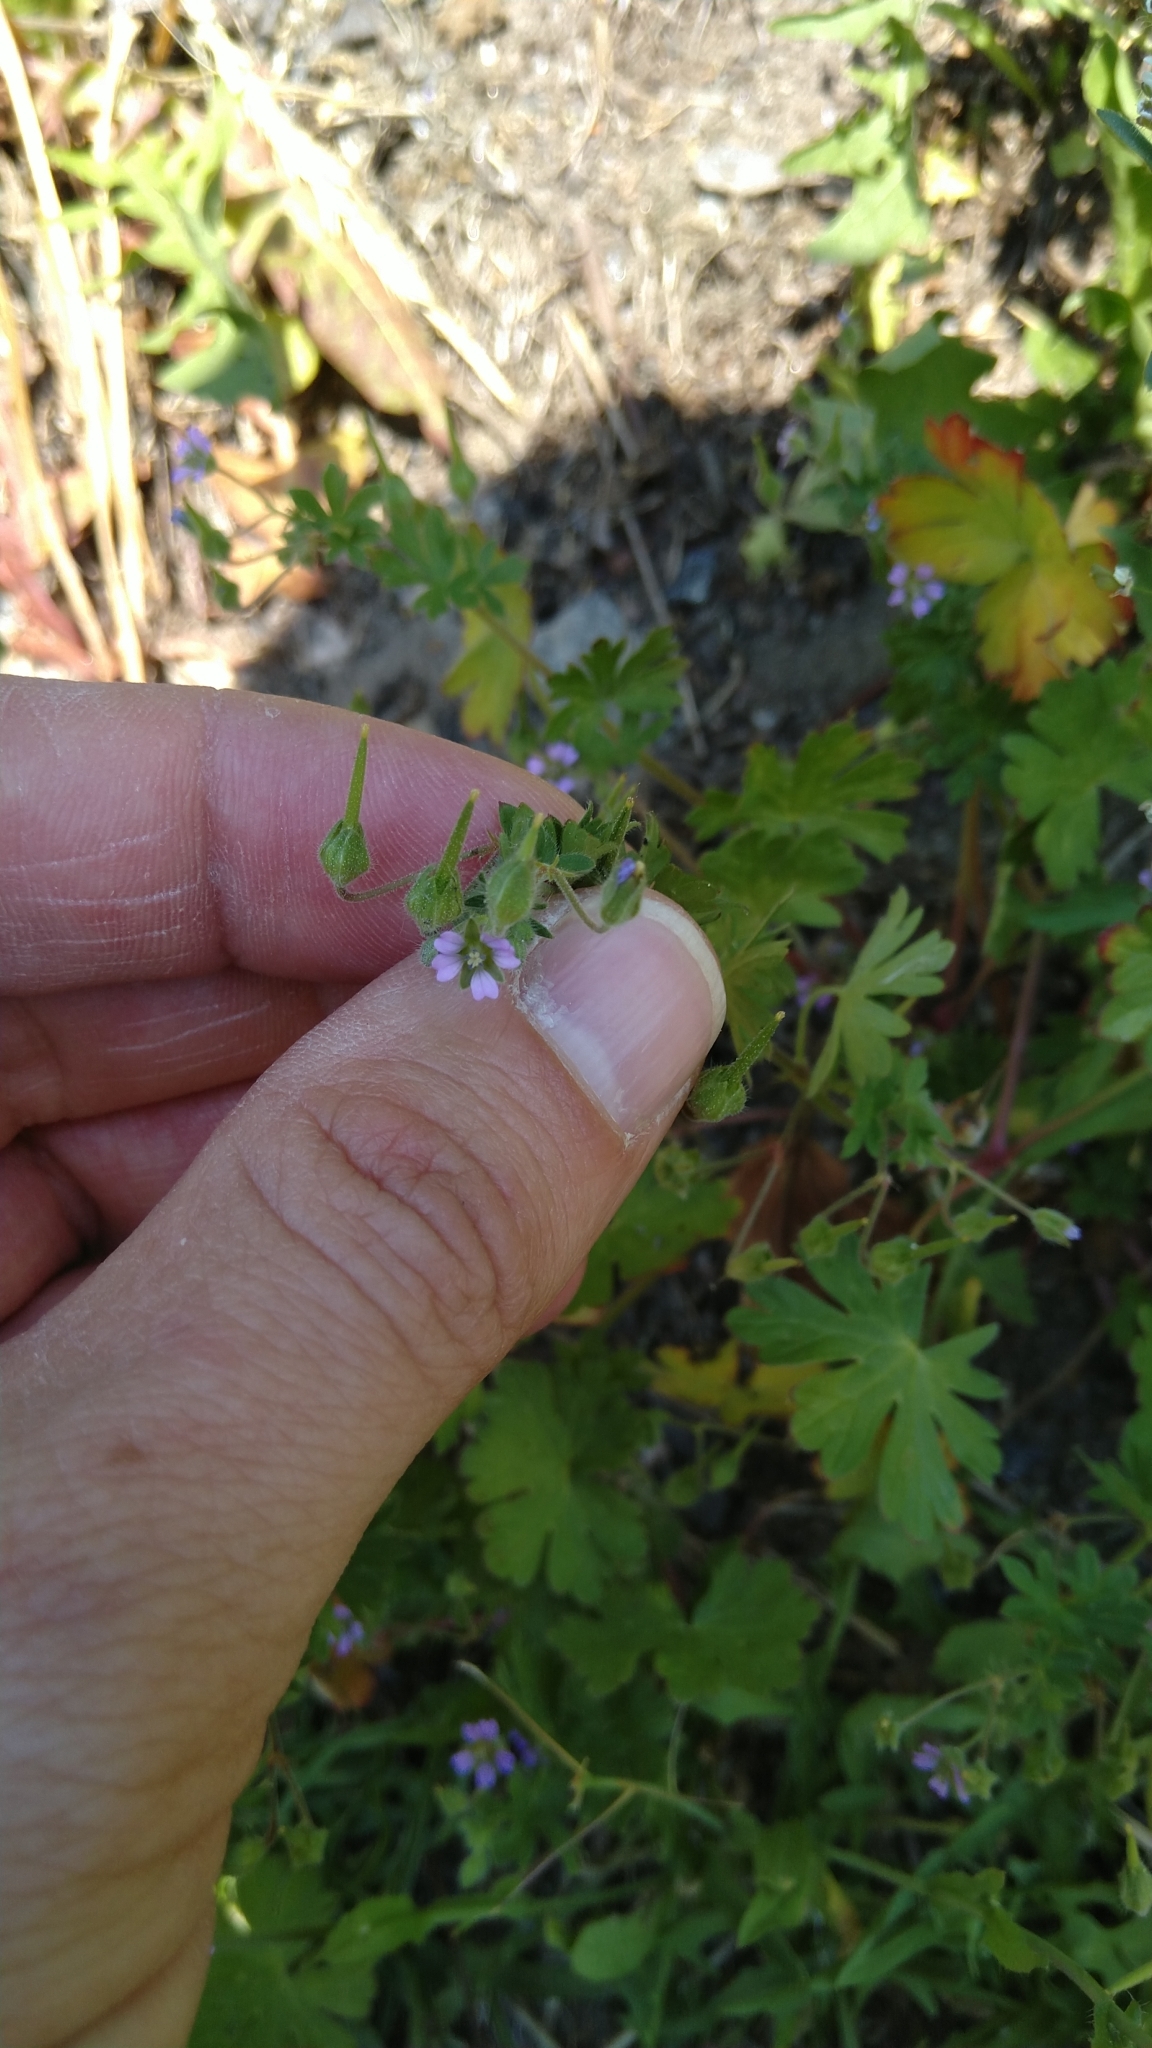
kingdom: Plantae
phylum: Tracheophyta
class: Magnoliopsida
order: Geraniales
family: Geraniaceae
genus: Geranium
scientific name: Geranium pusillum
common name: Small geranium
